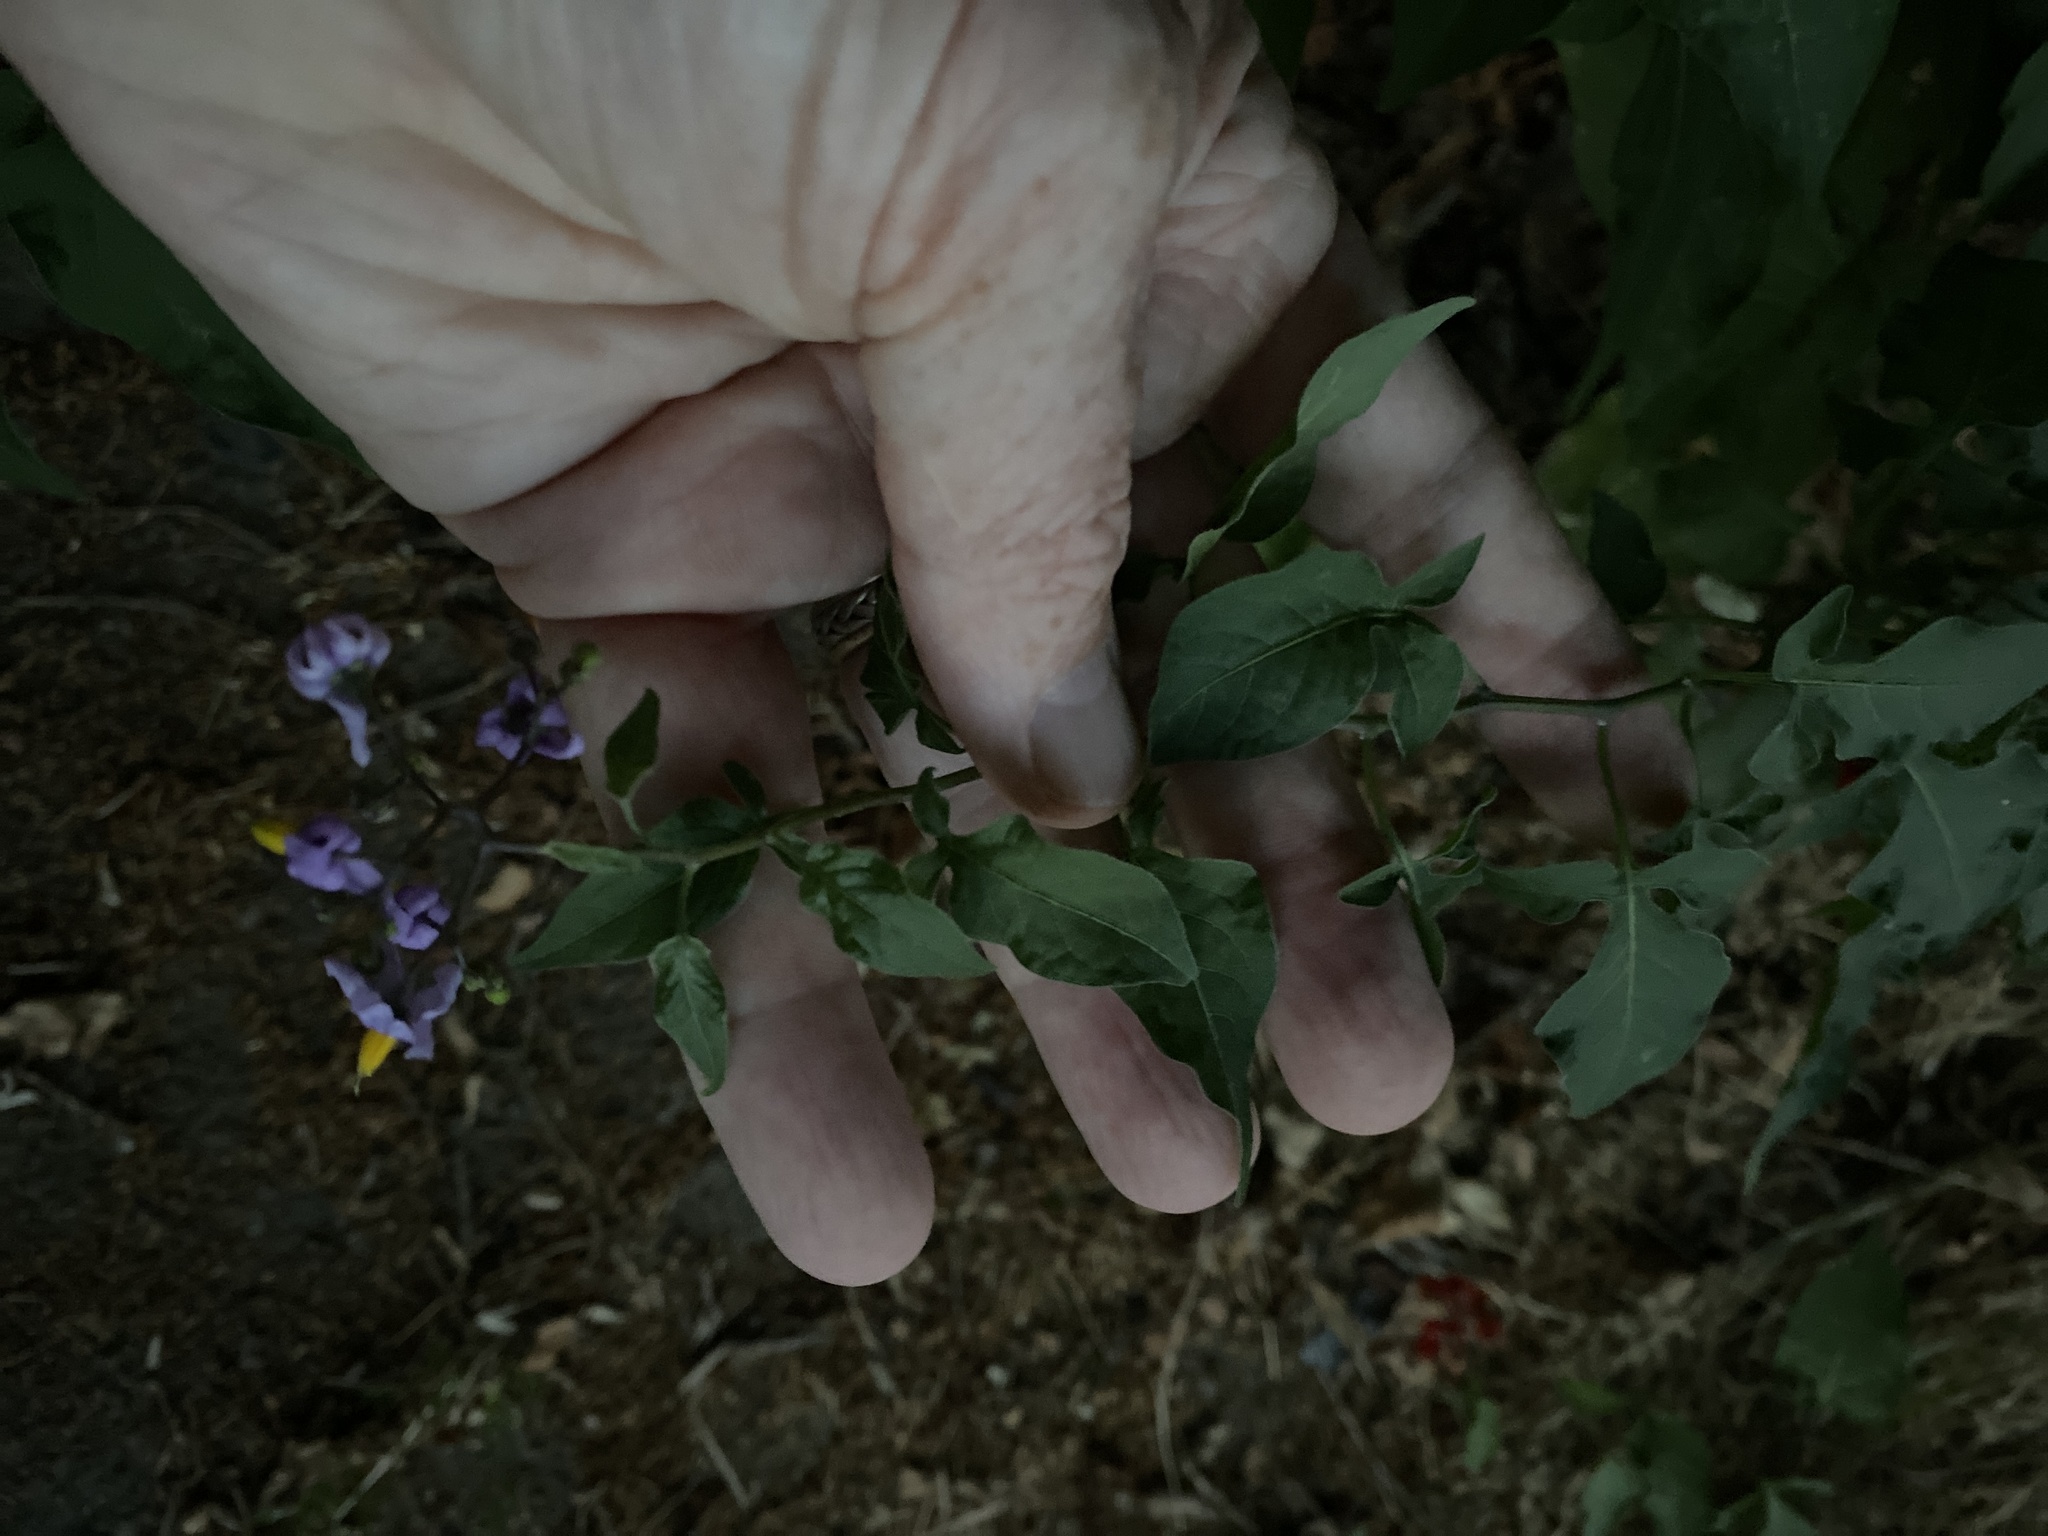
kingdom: Plantae
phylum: Tracheophyta
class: Magnoliopsida
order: Solanales
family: Solanaceae
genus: Solanum
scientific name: Solanum dulcamara
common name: Climbing nightshade
